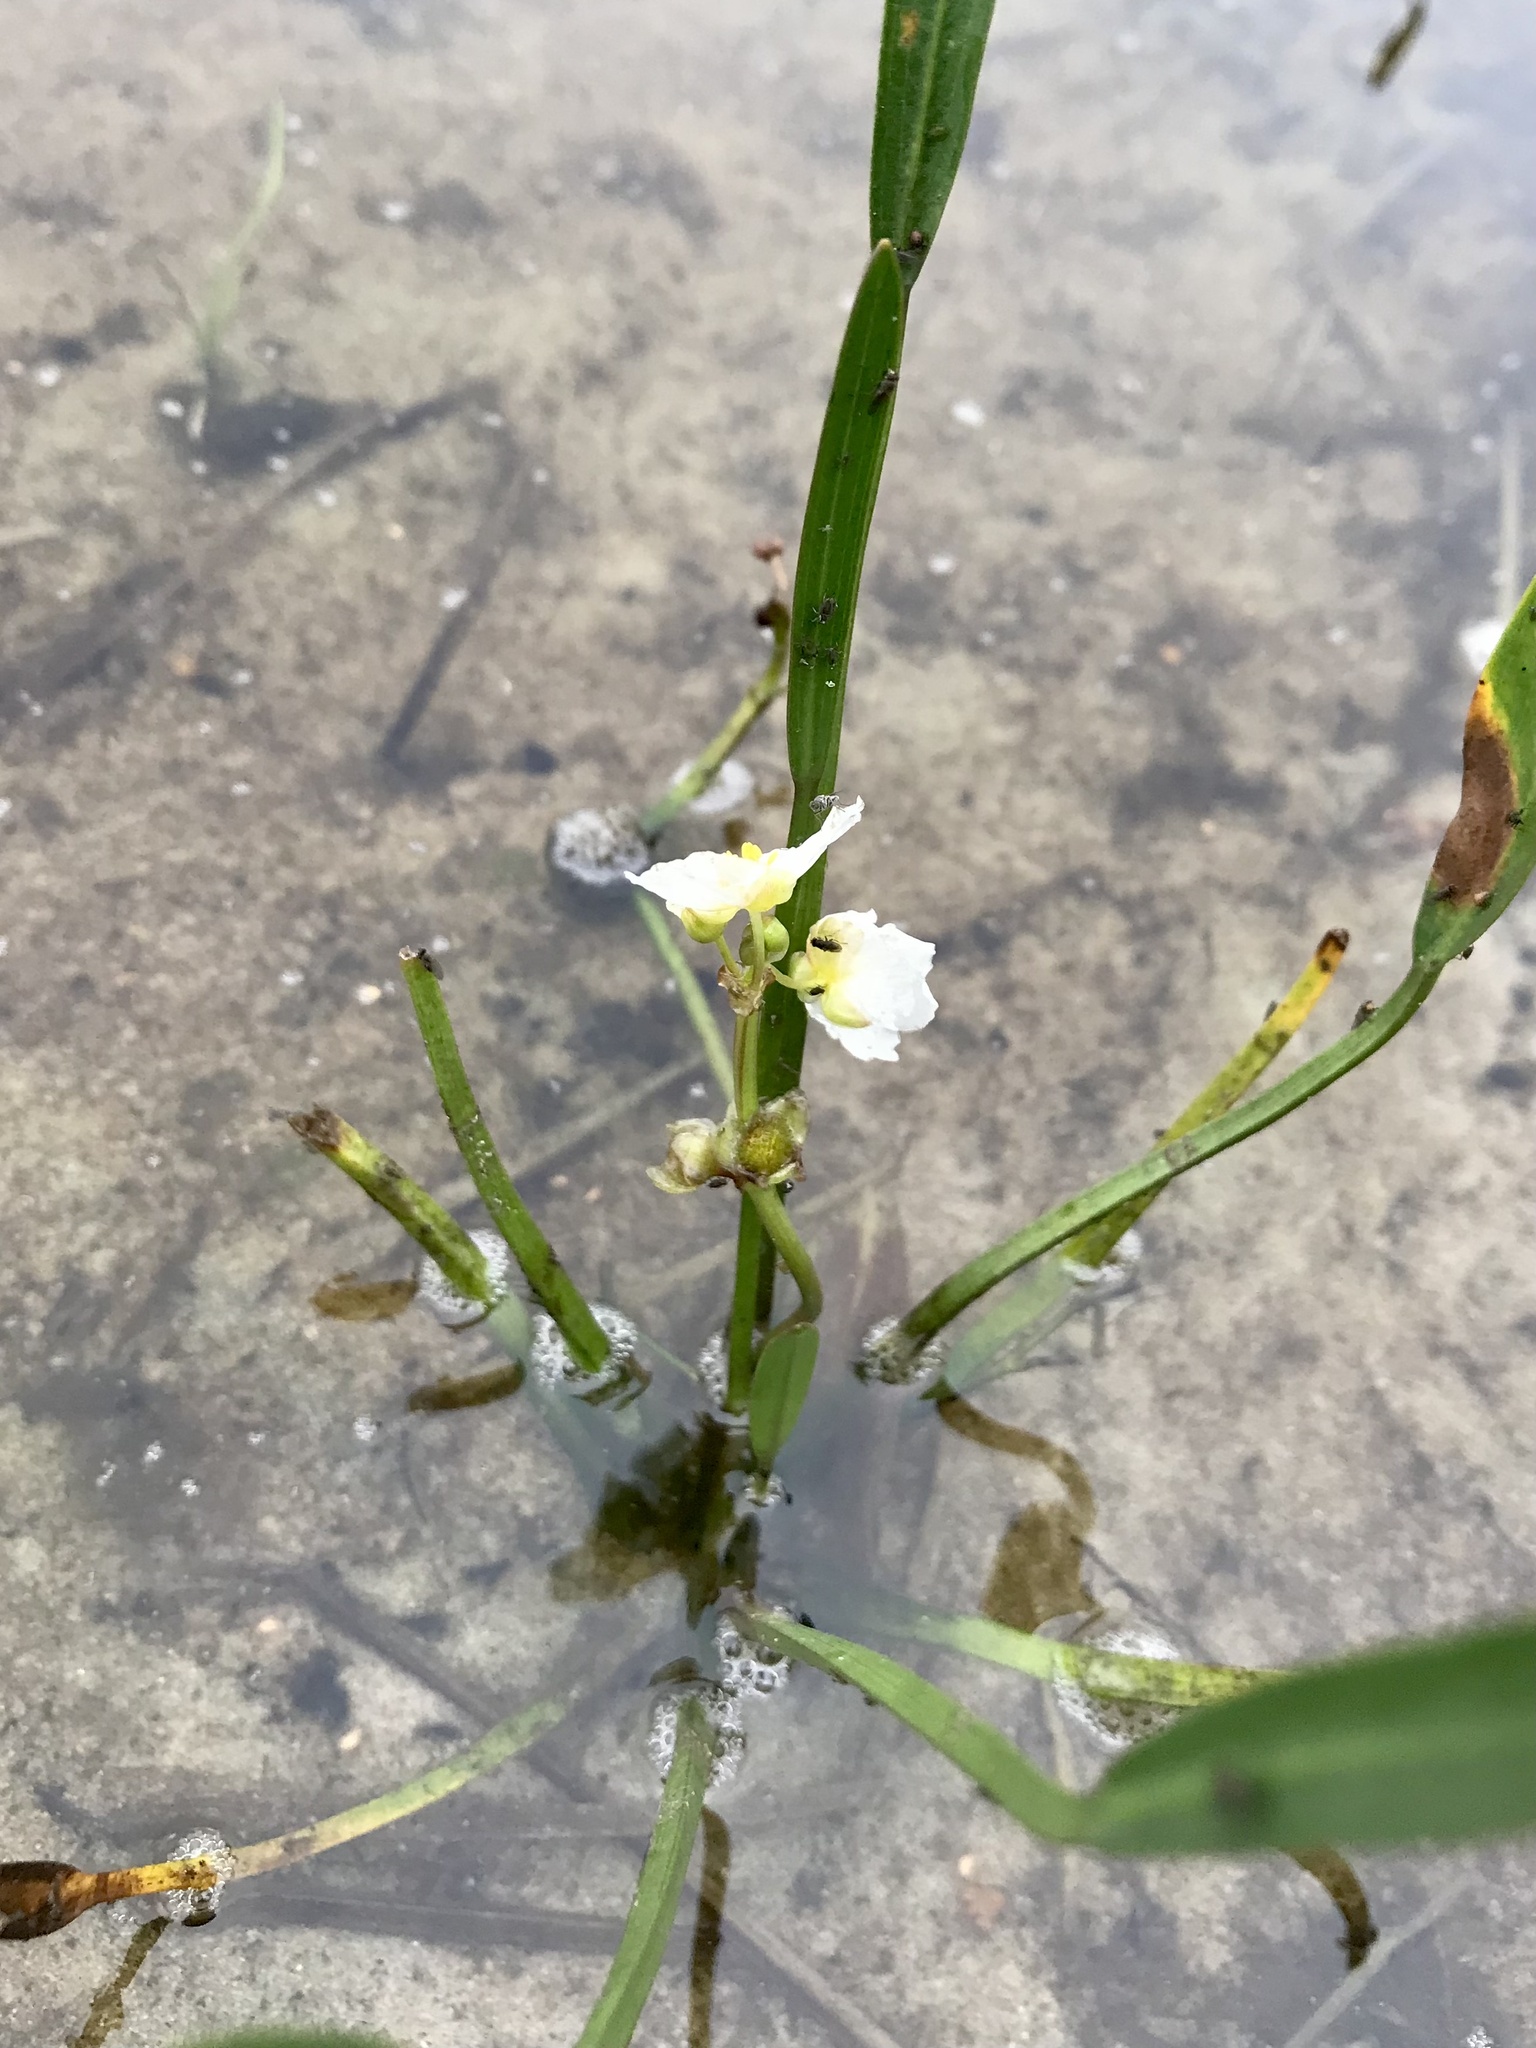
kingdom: Plantae
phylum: Tracheophyta
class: Liliopsida
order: Alismatales
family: Alismataceae
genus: Sagittaria
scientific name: Sagittaria rigida
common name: Canadian arrowhead
